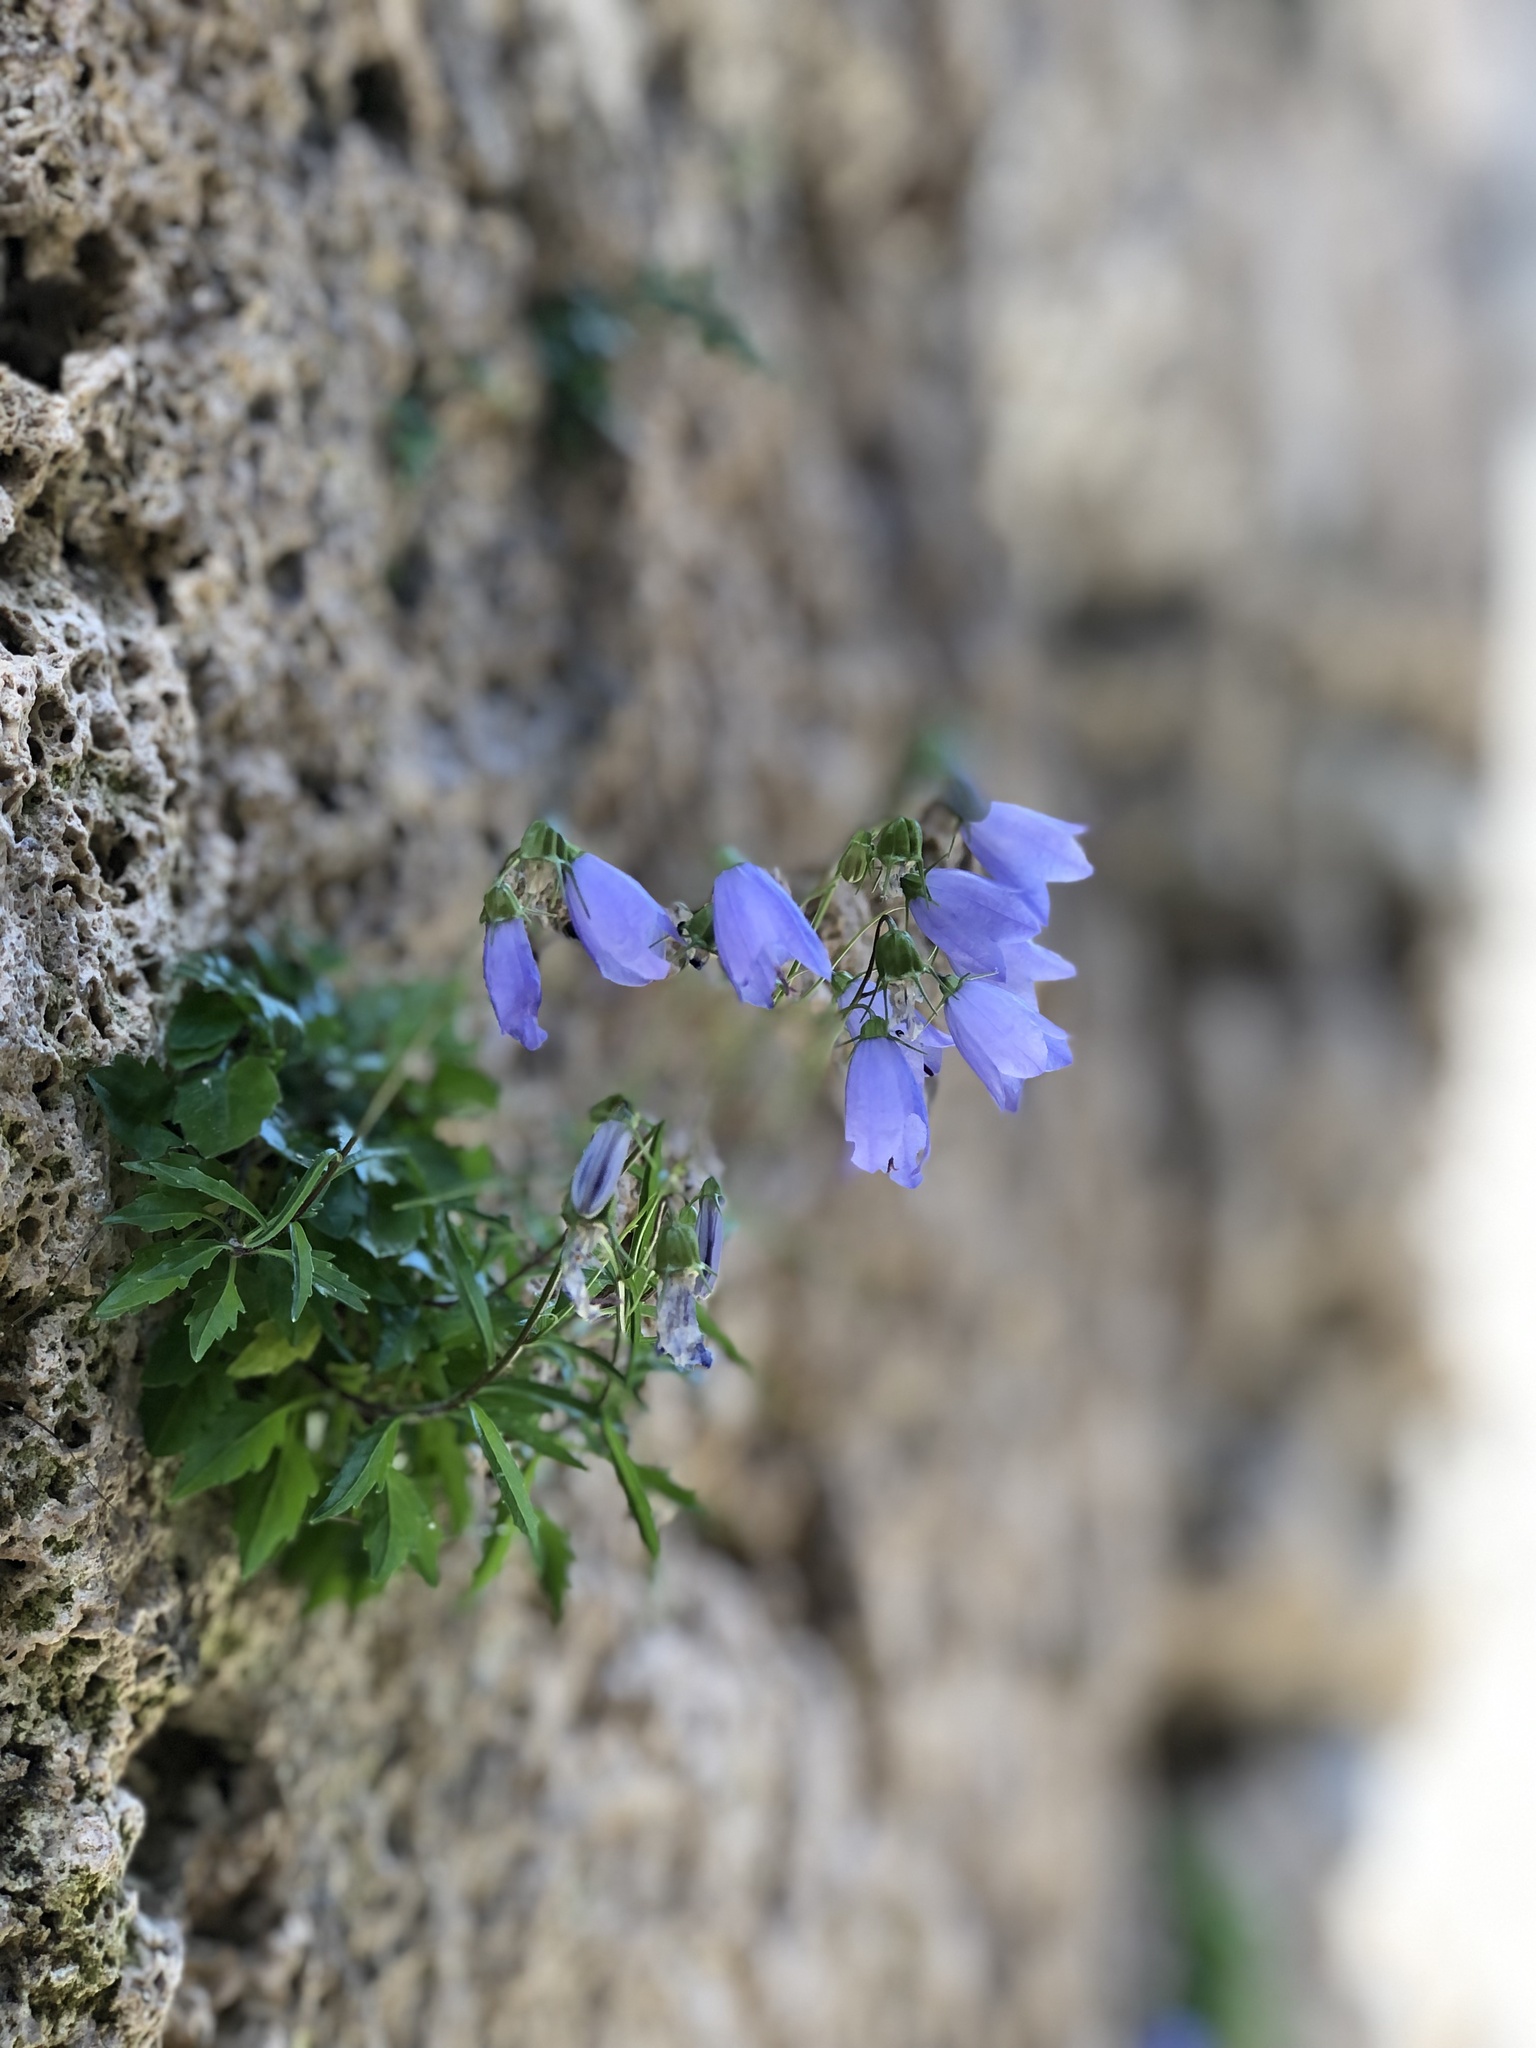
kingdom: Plantae
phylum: Tracheophyta
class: Magnoliopsida
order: Asterales
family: Campanulaceae
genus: Campanula
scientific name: Campanula cochleariifolia
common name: Fairies'-thimbles
